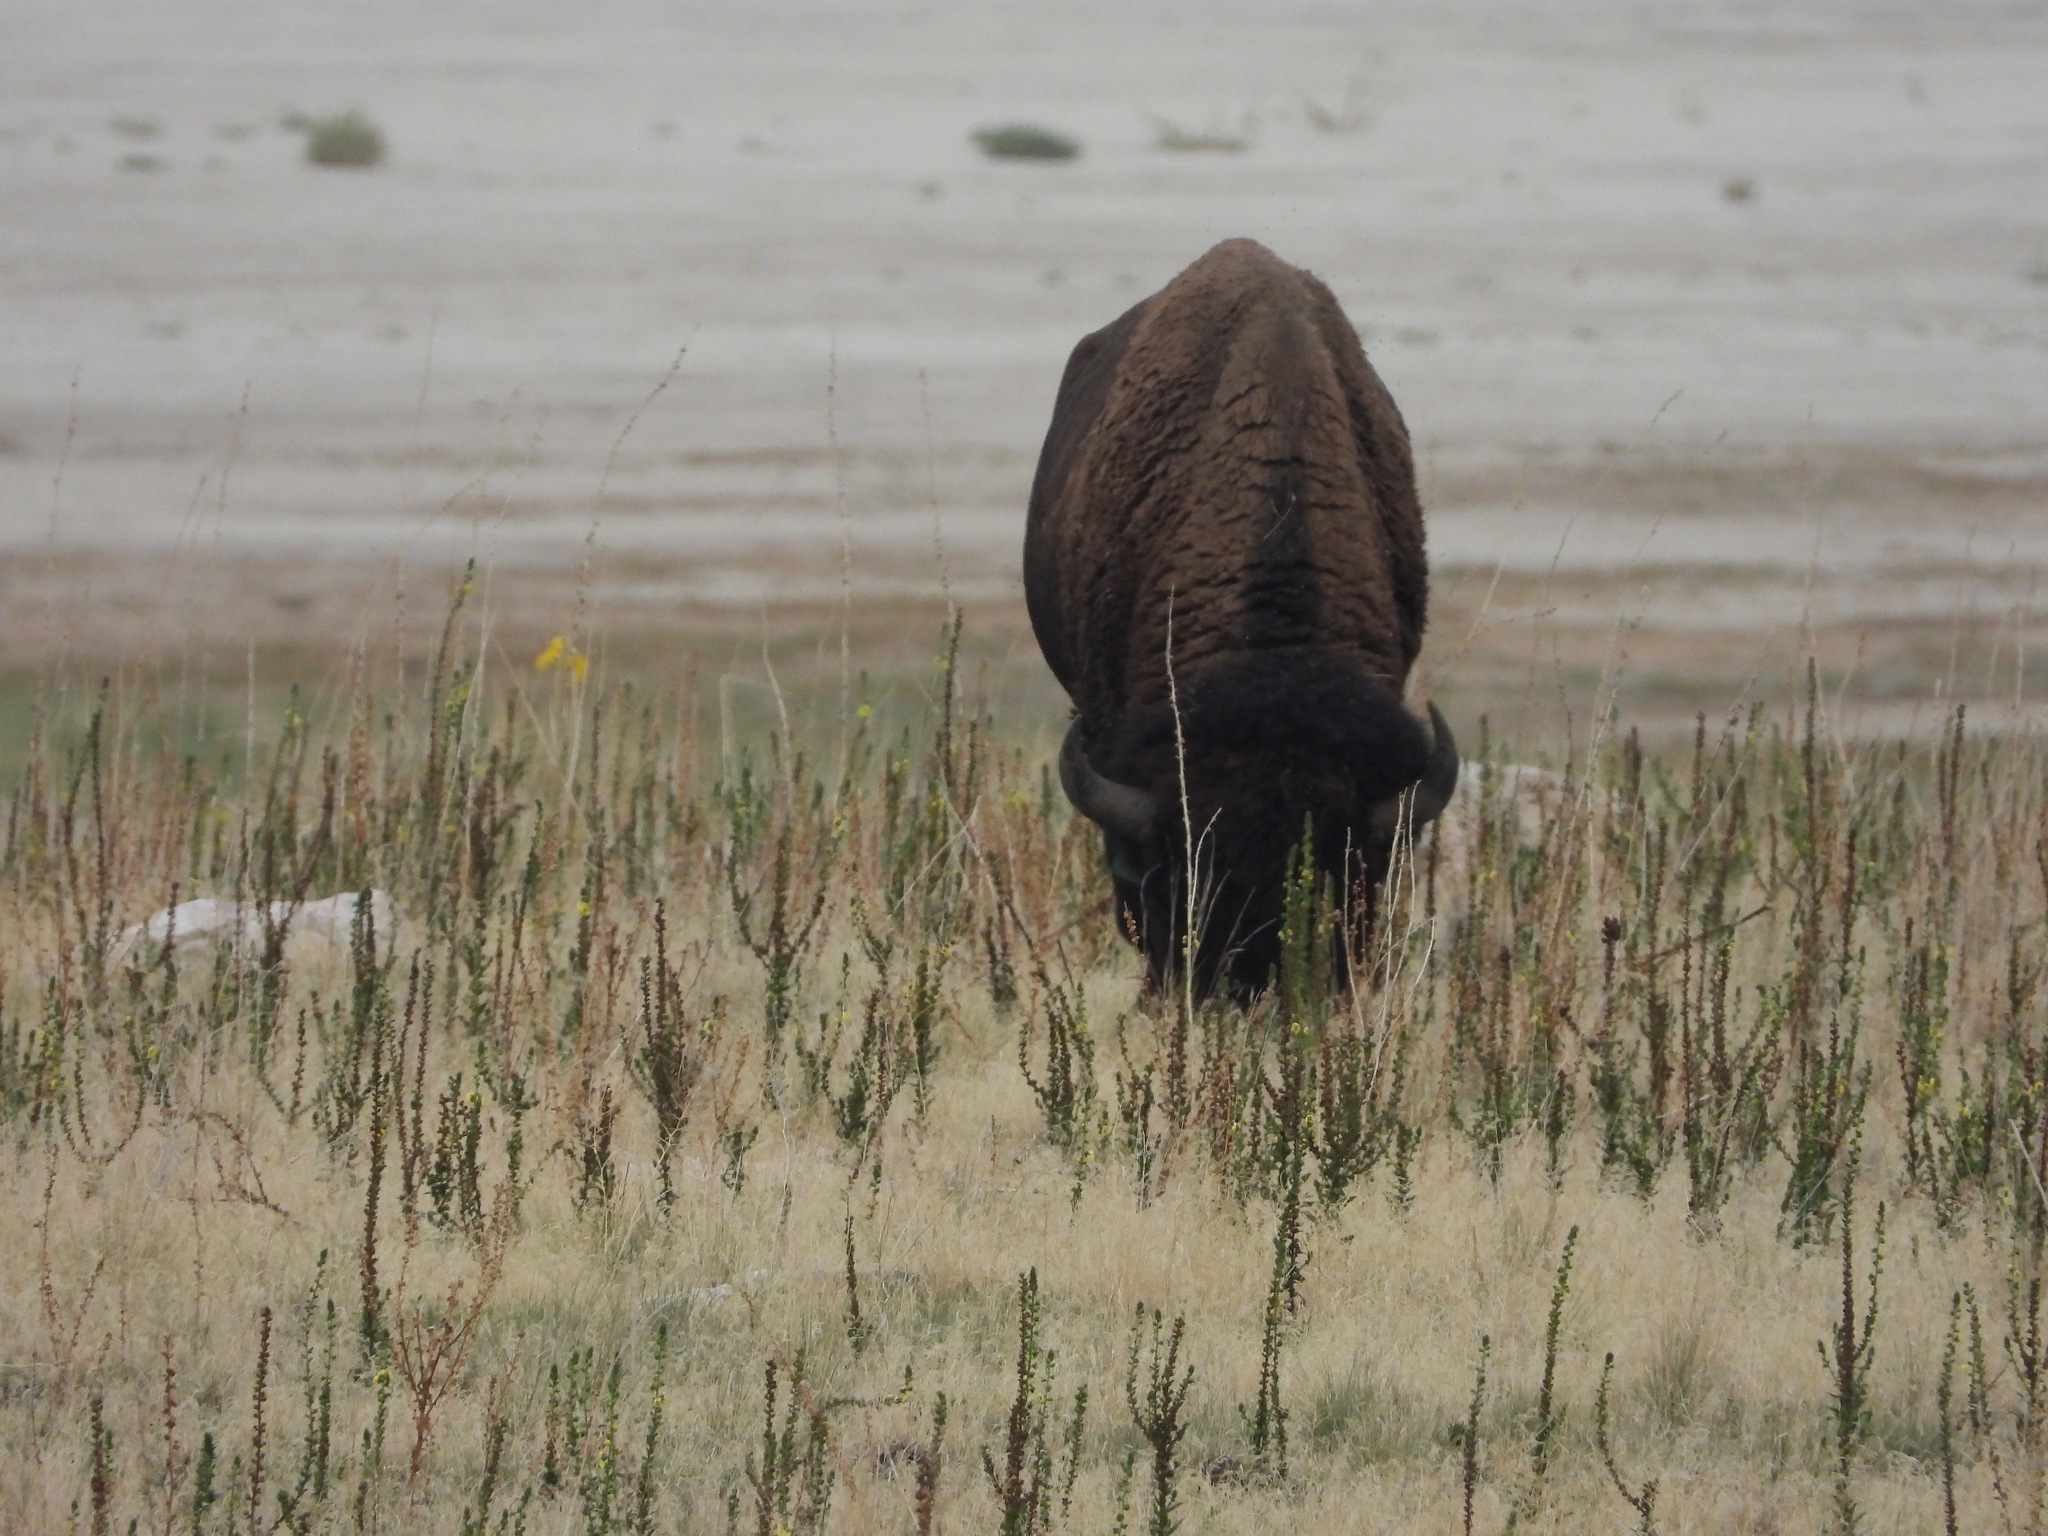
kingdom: Animalia
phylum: Chordata
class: Mammalia
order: Artiodactyla
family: Bovidae
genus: Bison
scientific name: Bison bison
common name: American bison
